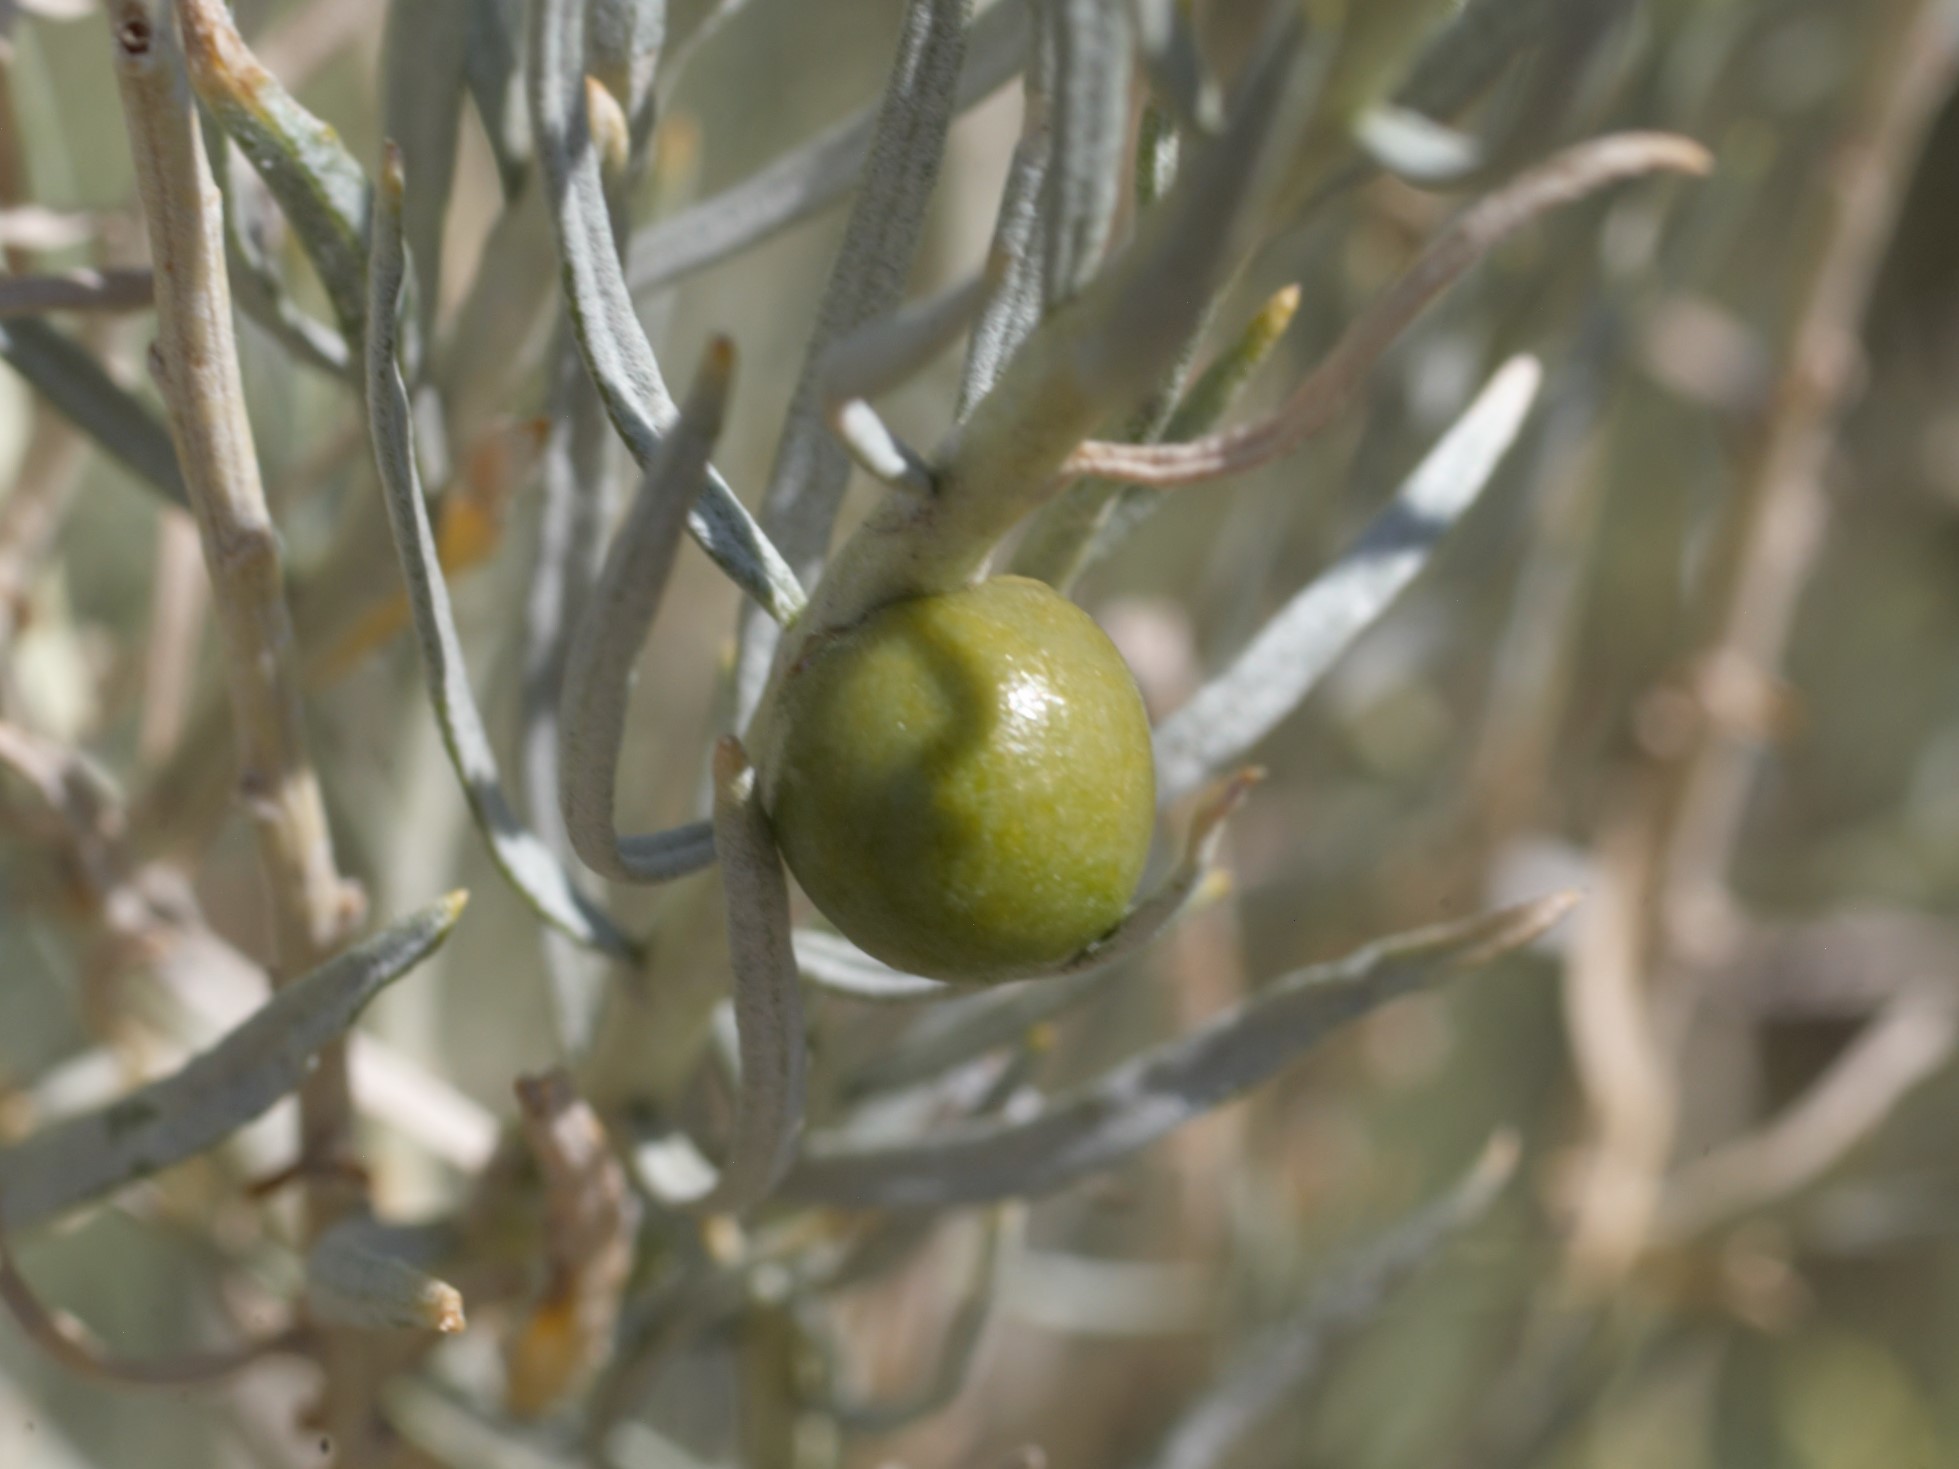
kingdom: Animalia
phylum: Arthropoda
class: Insecta
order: Diptera
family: Tephritidae
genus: Aciurina
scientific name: Aciurina trixa
